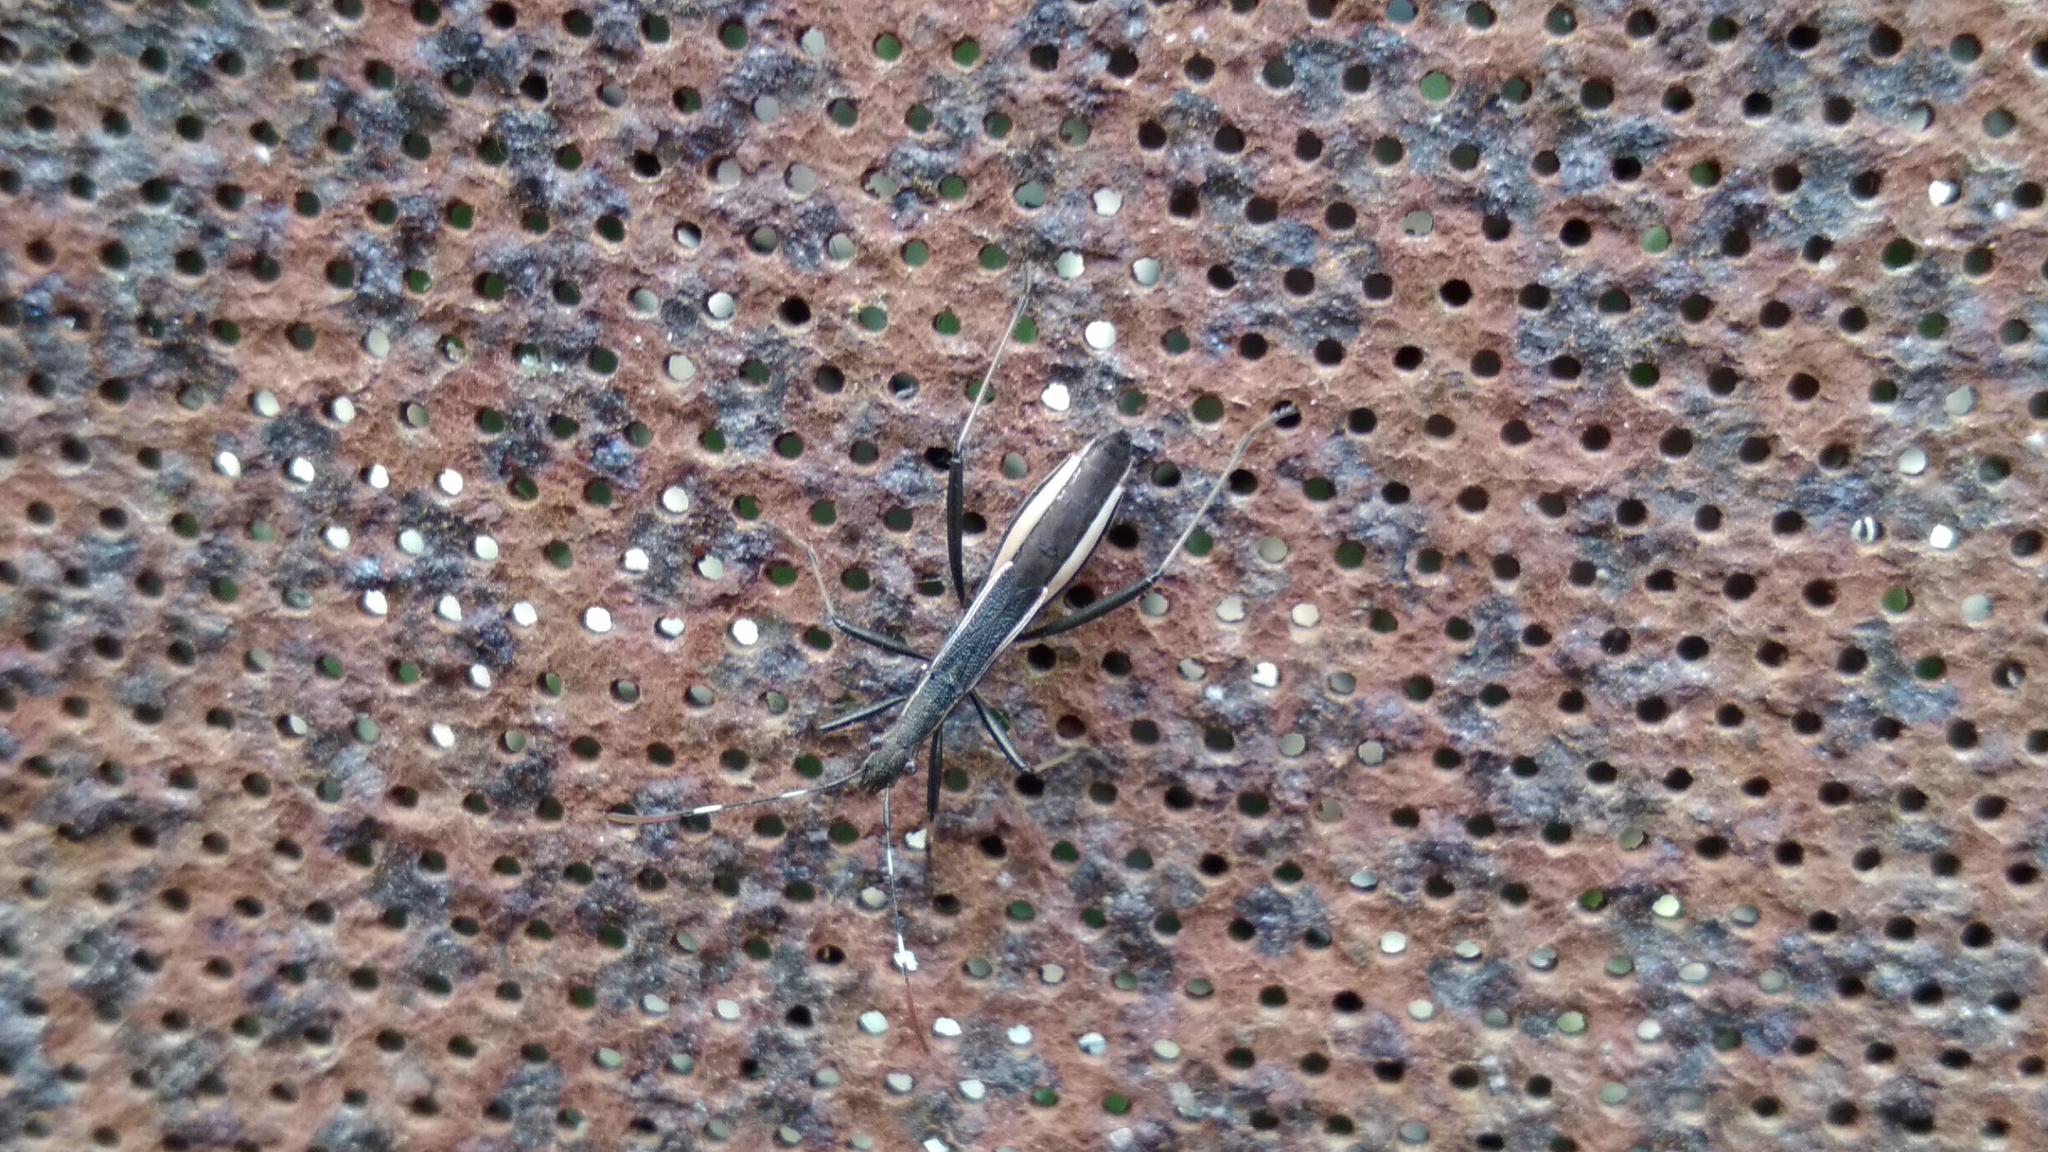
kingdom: Animalia
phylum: Arthropoda
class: Insecta
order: Hemiptera
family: Alydidae
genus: Micrelytra
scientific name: Micrelytra fossularum
